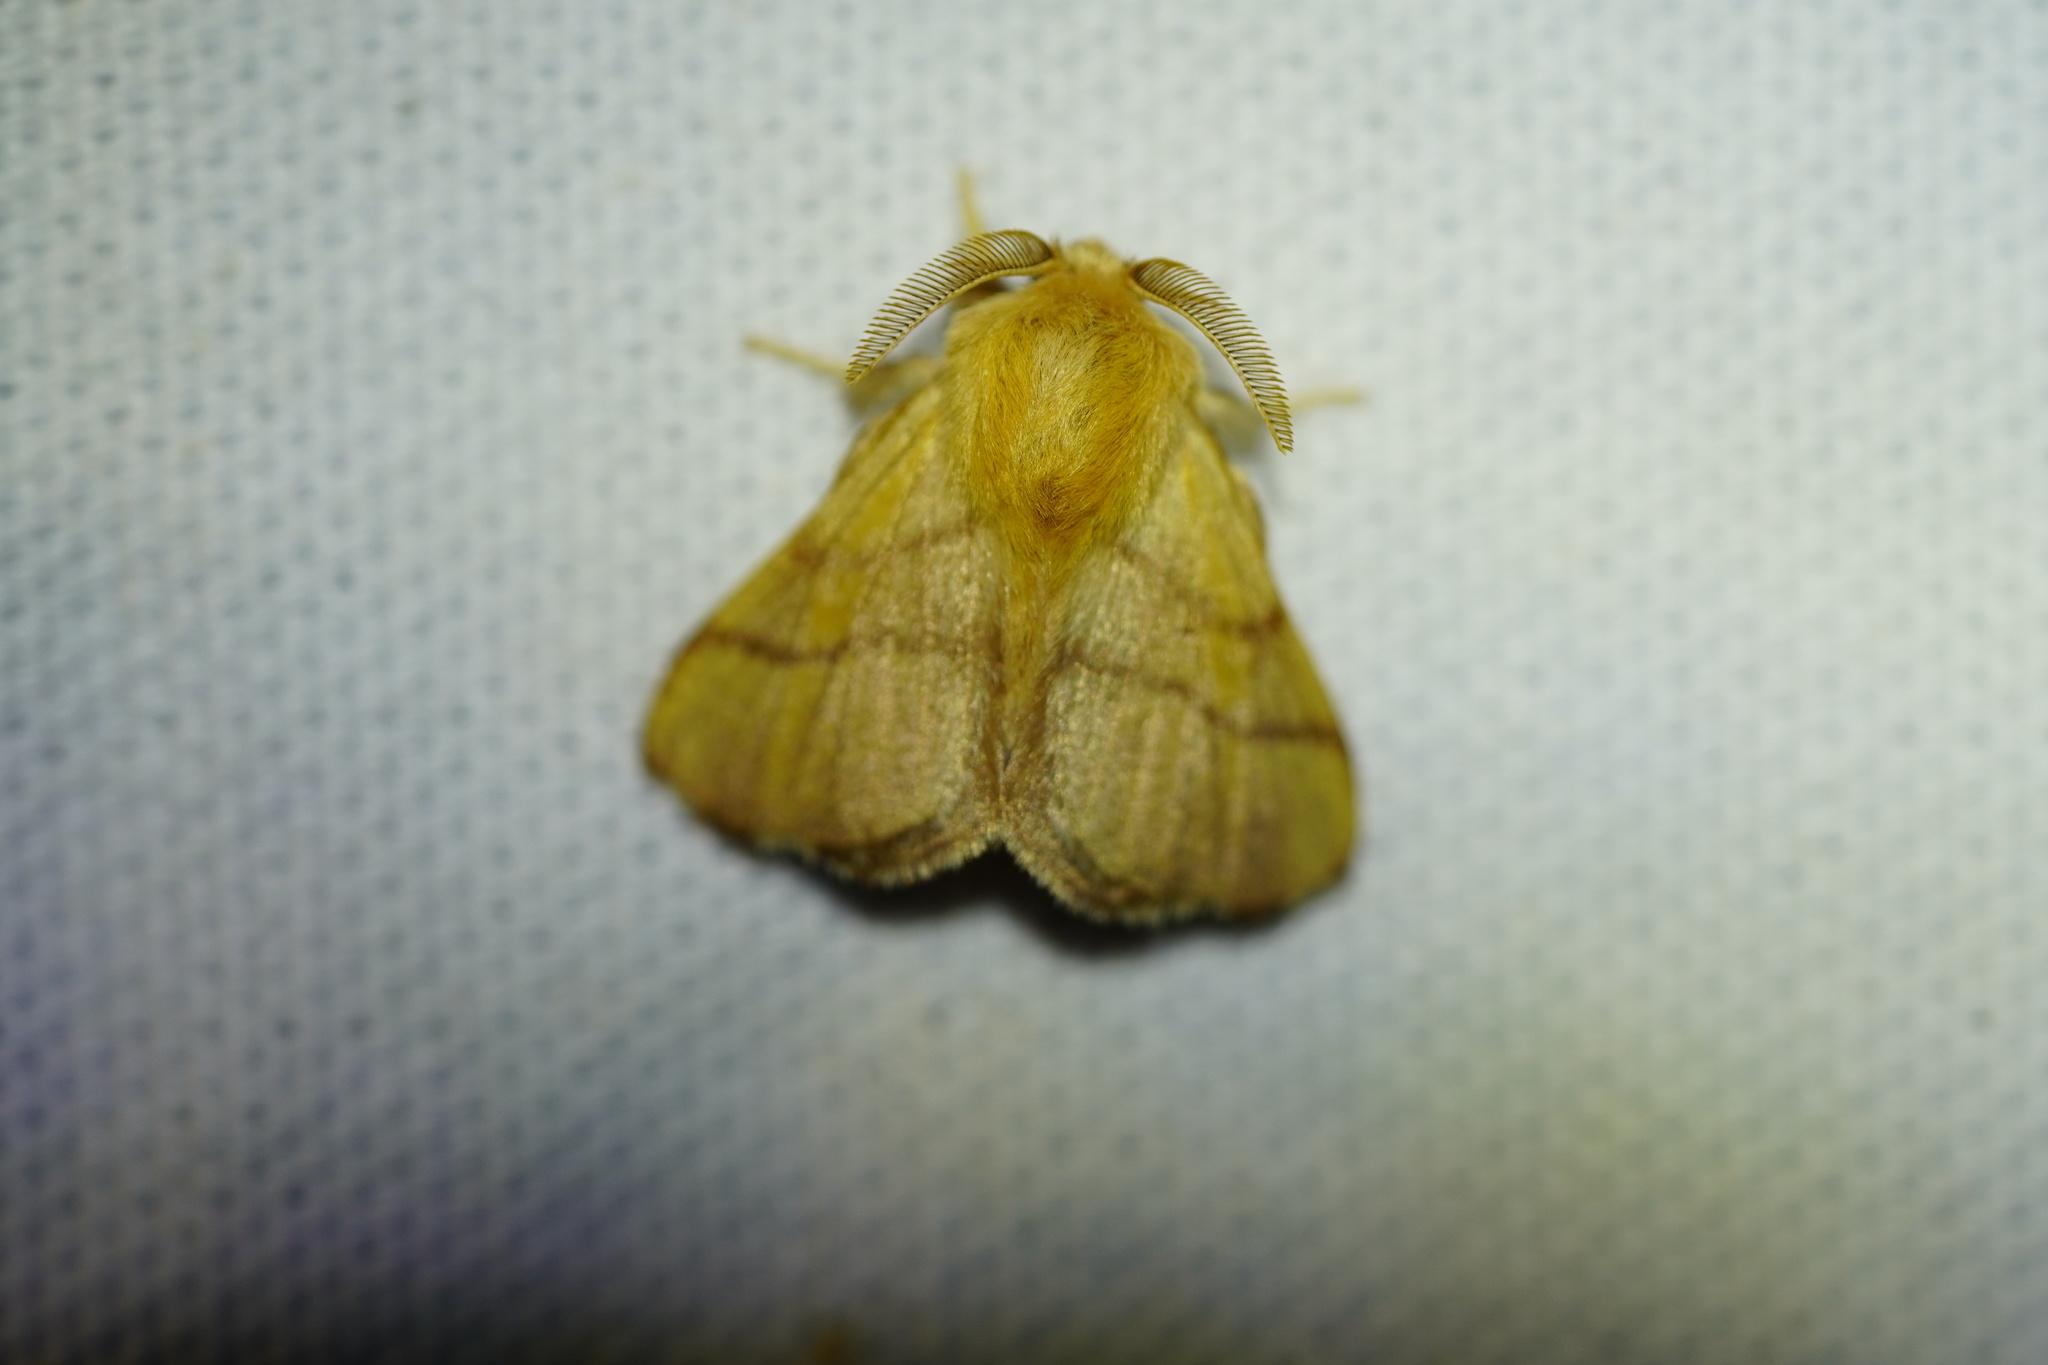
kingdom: Animalia
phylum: Arthropoda
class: Insecta
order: Lepidoptera
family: Lasiocampidae
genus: Malacosoma
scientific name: Malacosoma disstria
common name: Forest tent caterpillar
